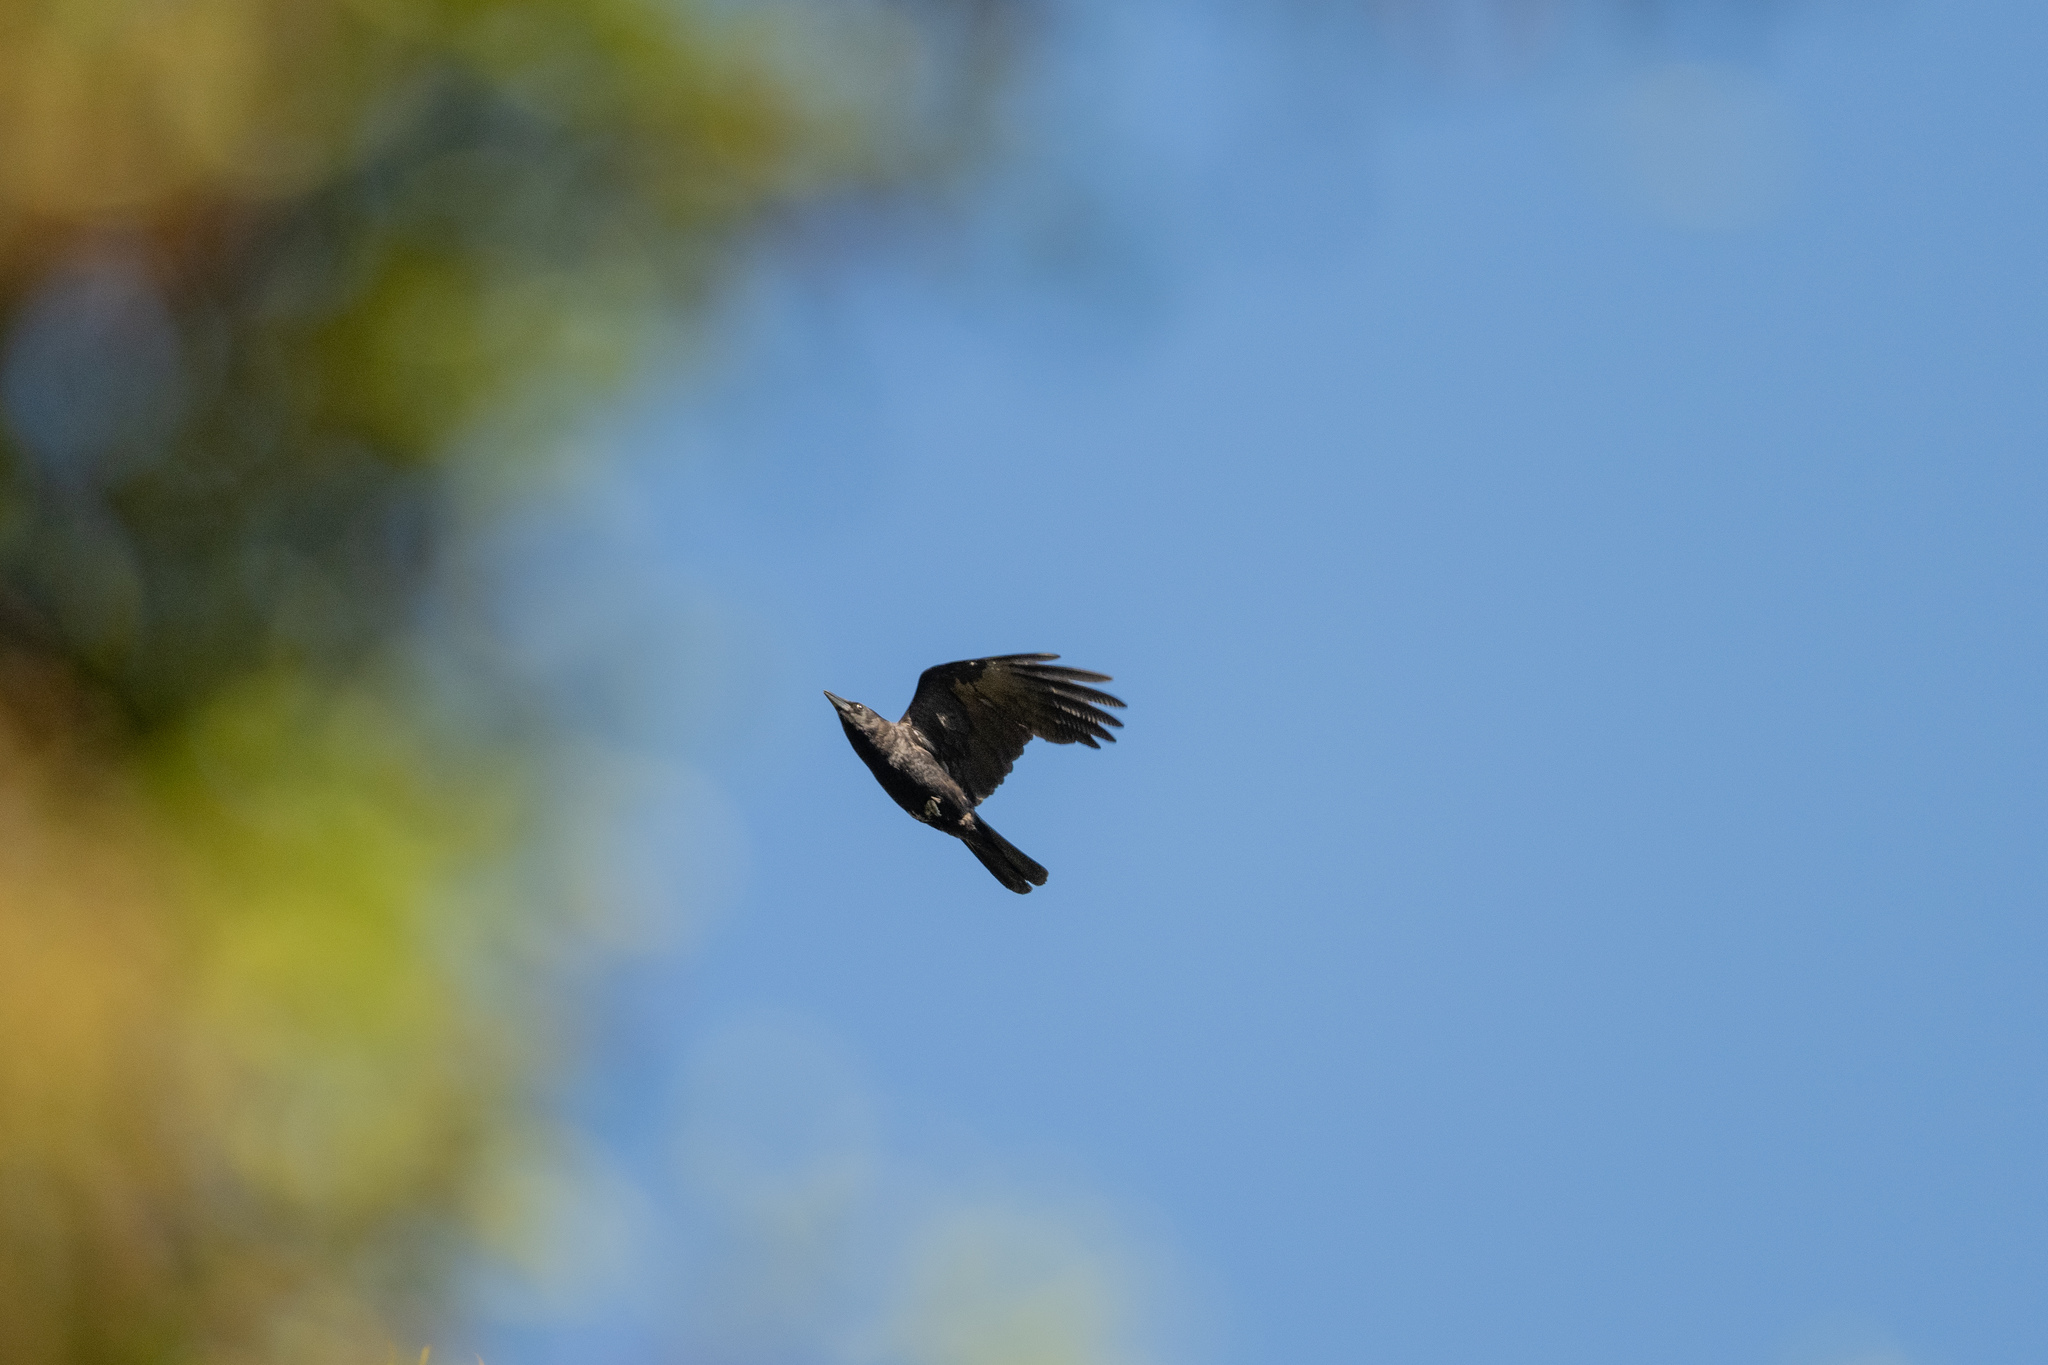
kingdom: Animalia
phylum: Chordata
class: Aves
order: Passeriformes
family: Corvidae
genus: Corvus
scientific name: Corvus brachyrhynchos
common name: American crow
